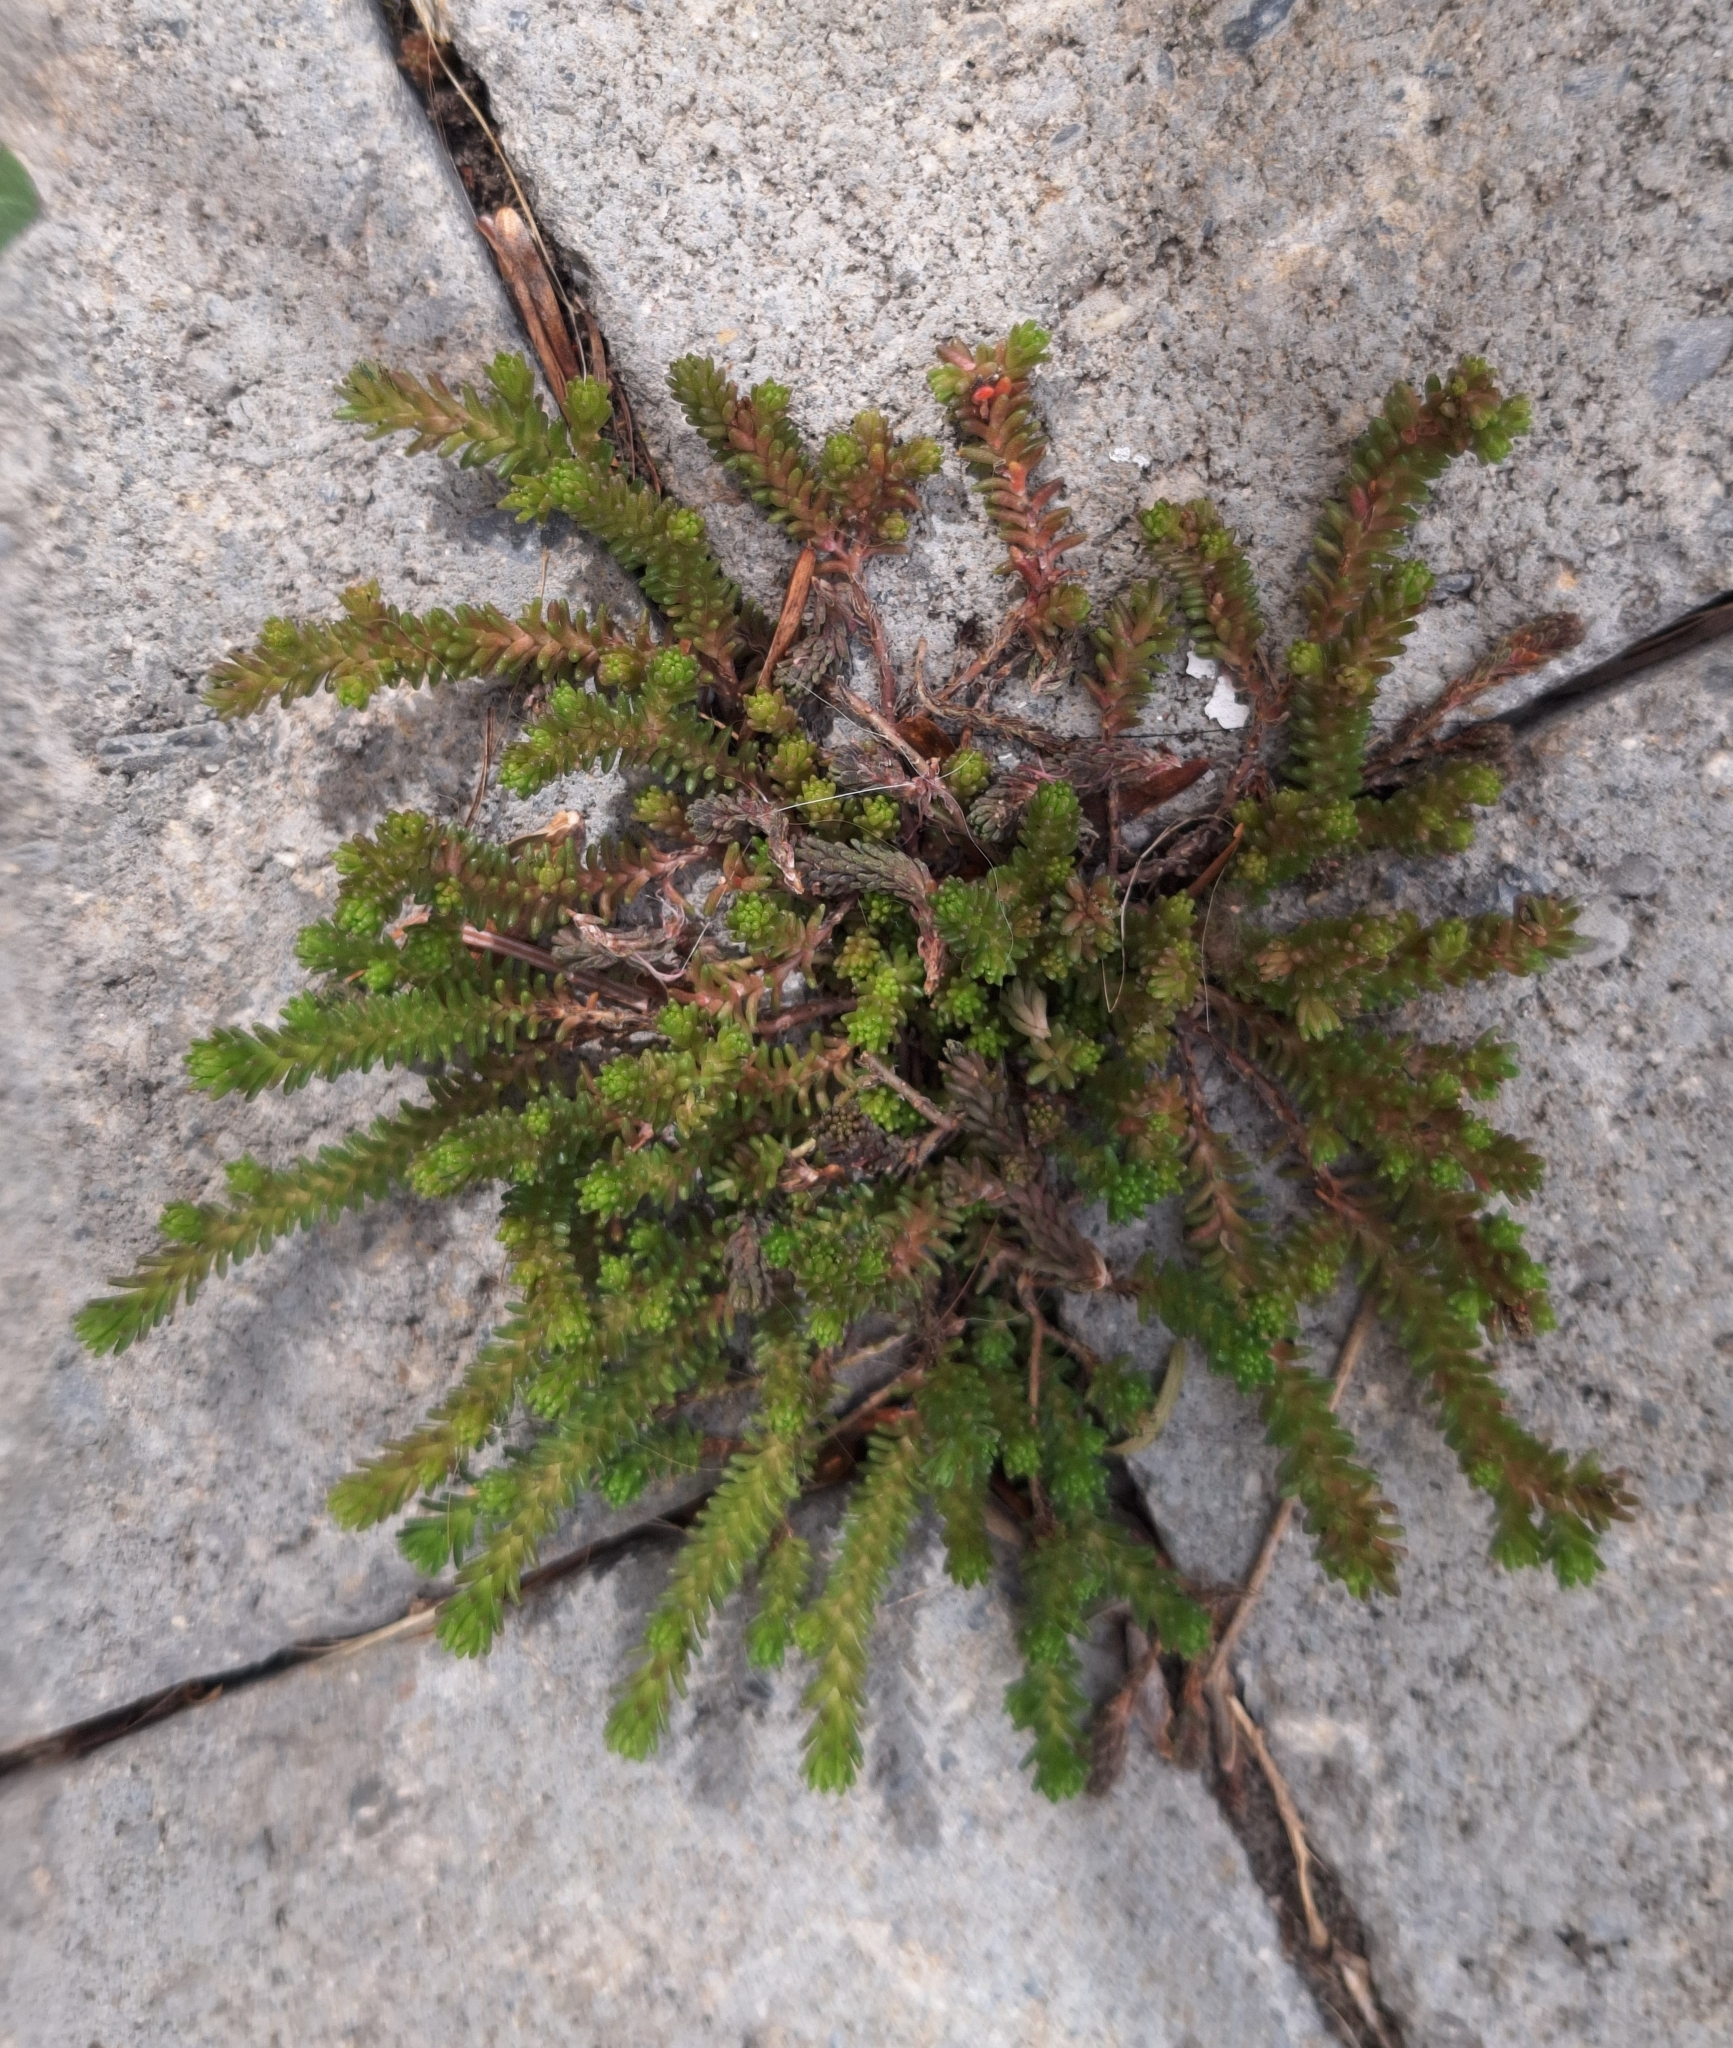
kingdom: Plantae
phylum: Tracheophyta
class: Magnoliopsida
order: Saxifragales
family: Crassulaceae
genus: Sedum
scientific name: Sedum sexangulare
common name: Tasteless stonecrop
